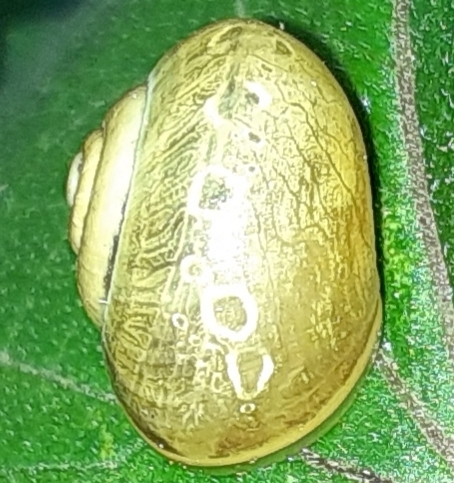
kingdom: Animalia
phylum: Mollusca
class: Gastropoda
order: Stylommatophora
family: Helicidae
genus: Cepaea
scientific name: Cepaea
